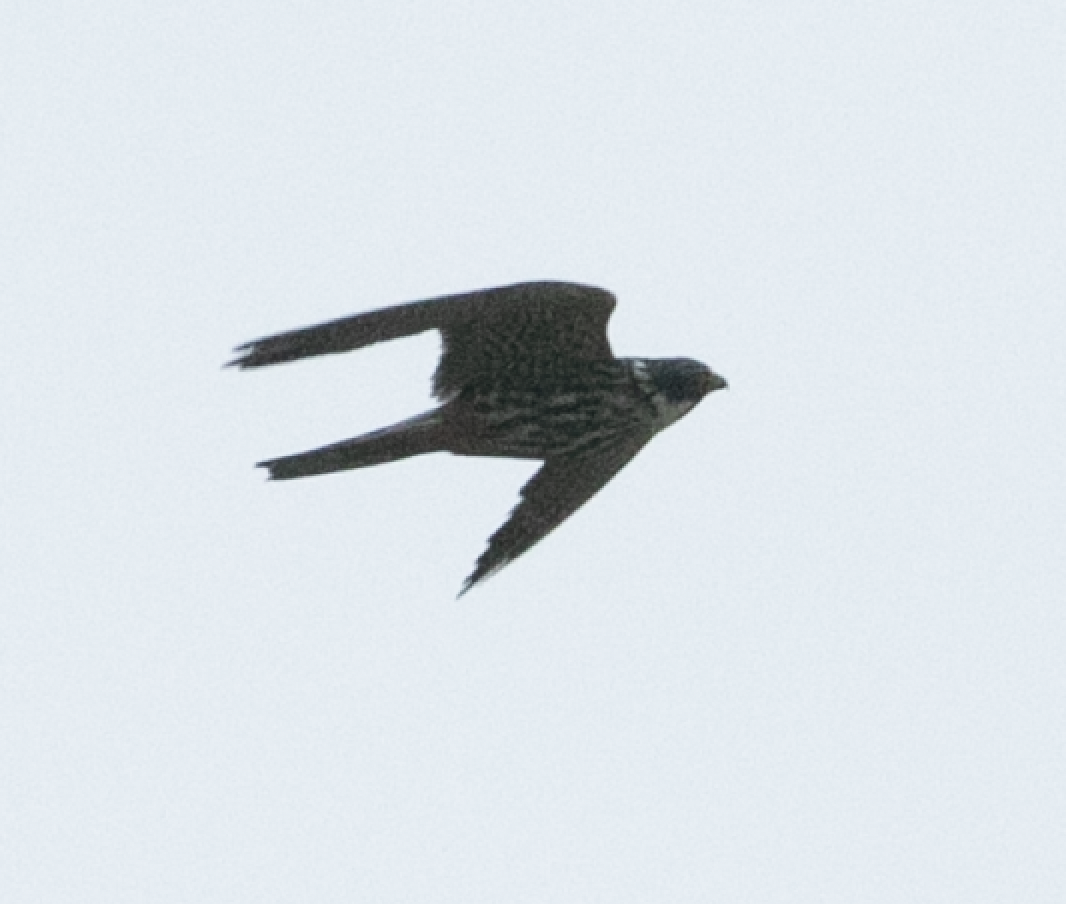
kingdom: Animalia
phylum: Chordata
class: Aves
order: Falconiformes
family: Falconidae
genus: Falco
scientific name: Falco subbuteo
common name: Eurasian hobby
